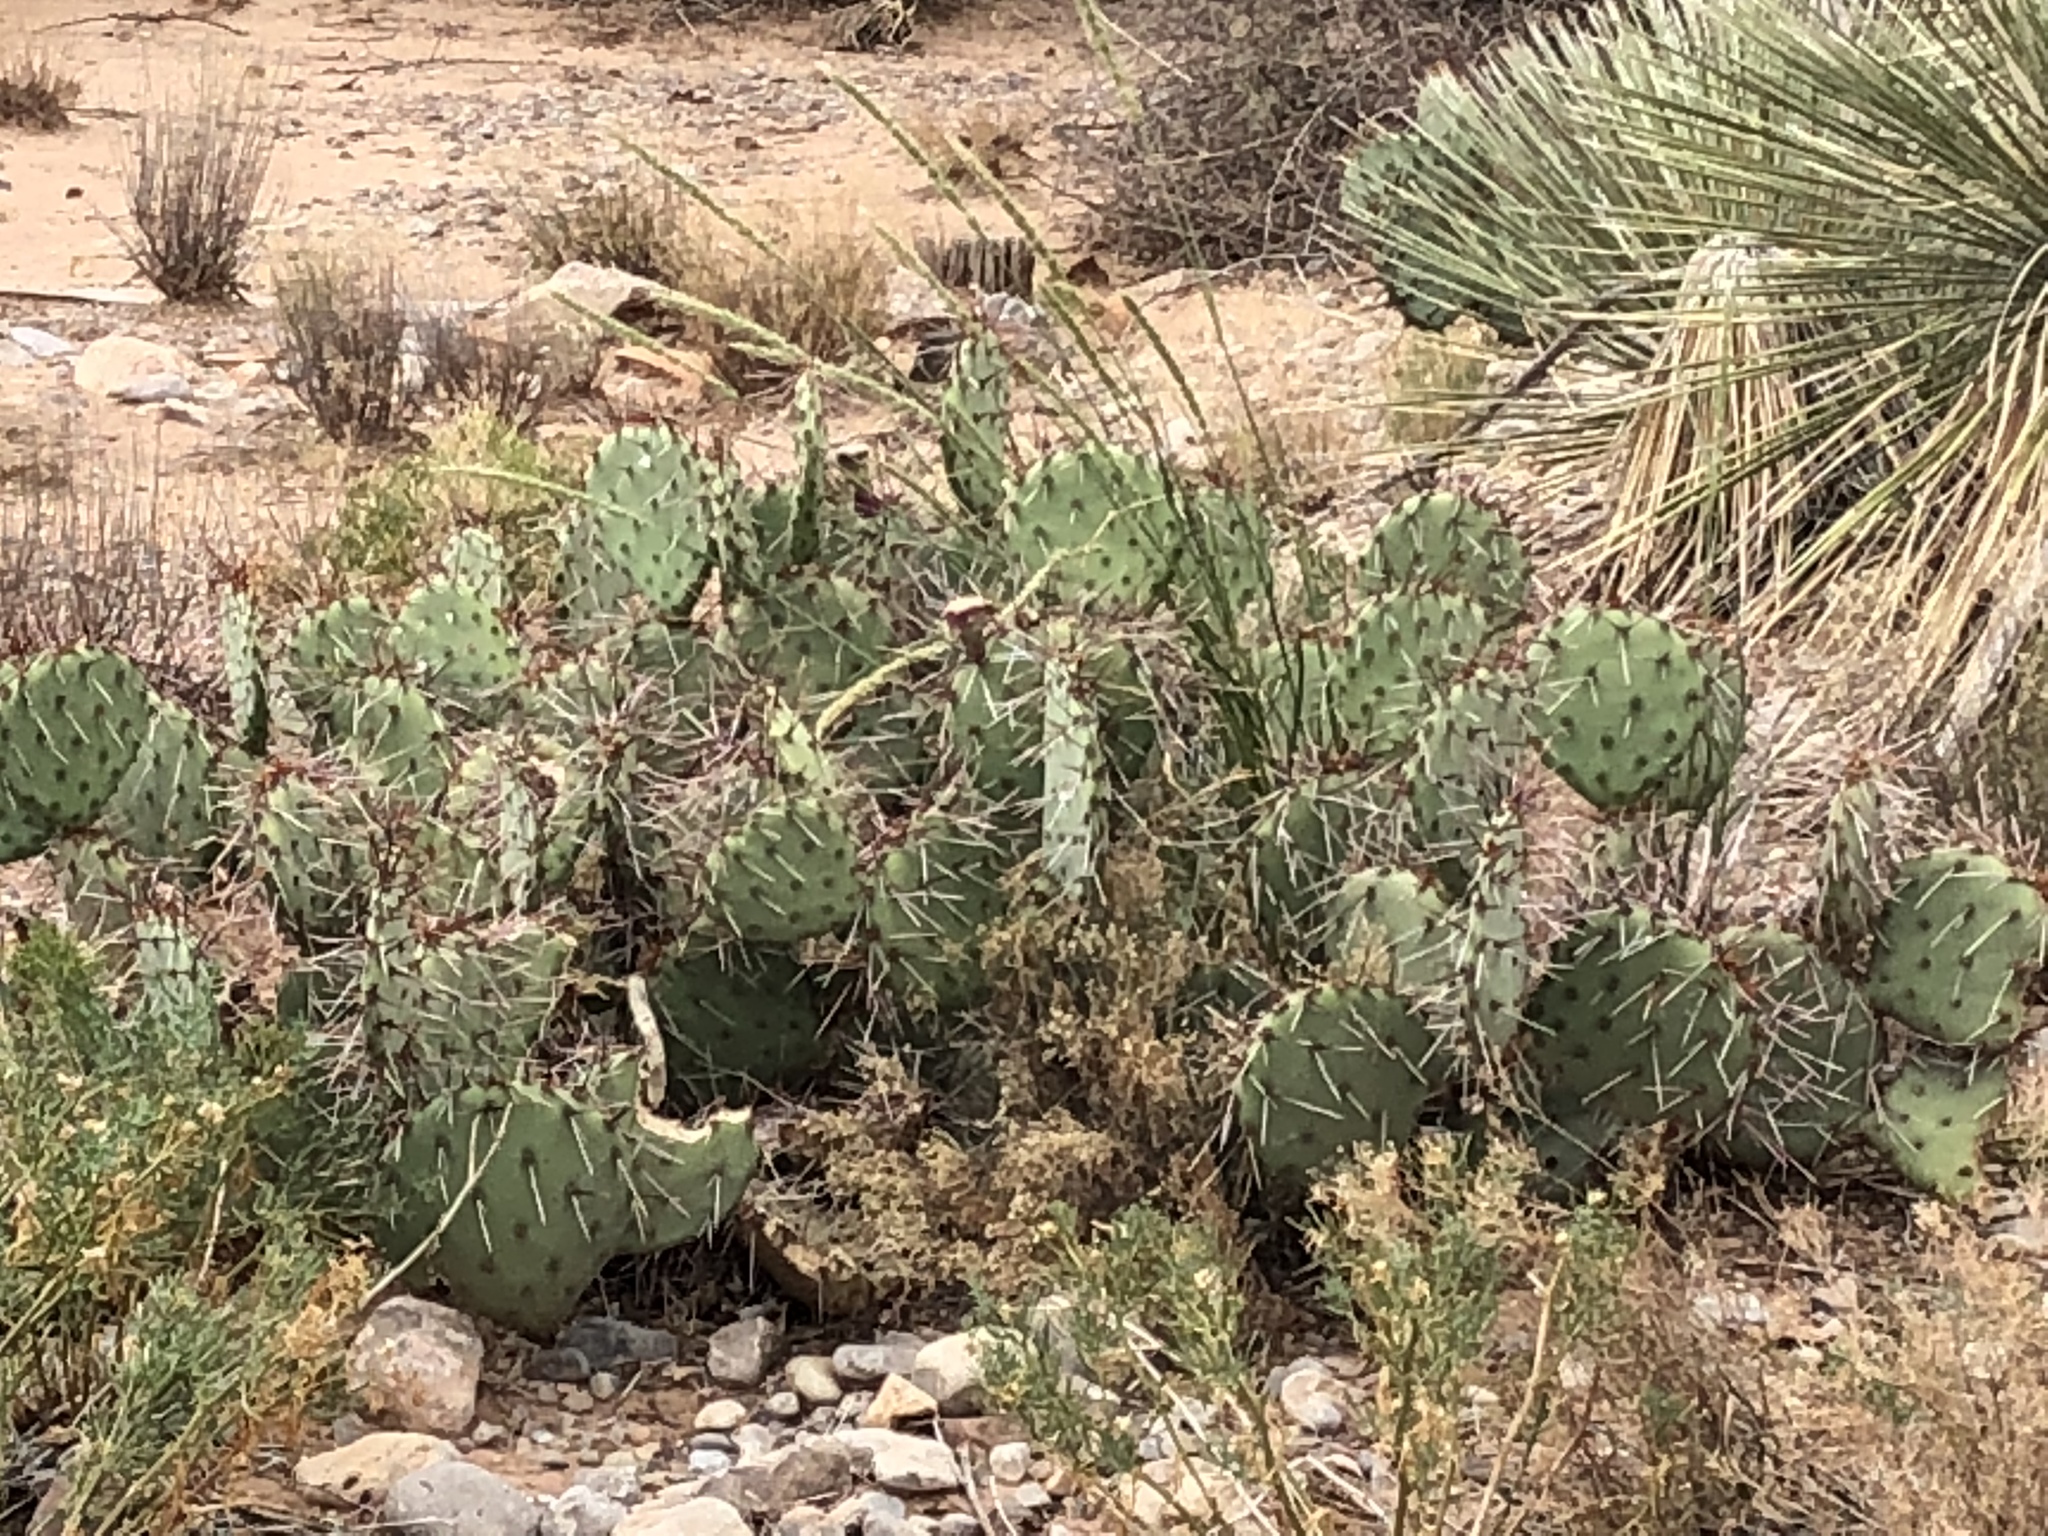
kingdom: Plantae
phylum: Tracheophyta
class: Magnoliopsida
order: Caryophyllales
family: Cactaceae
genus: Opuntia
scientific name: Opuntia phaeacantha
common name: New mexico prickly-pear
